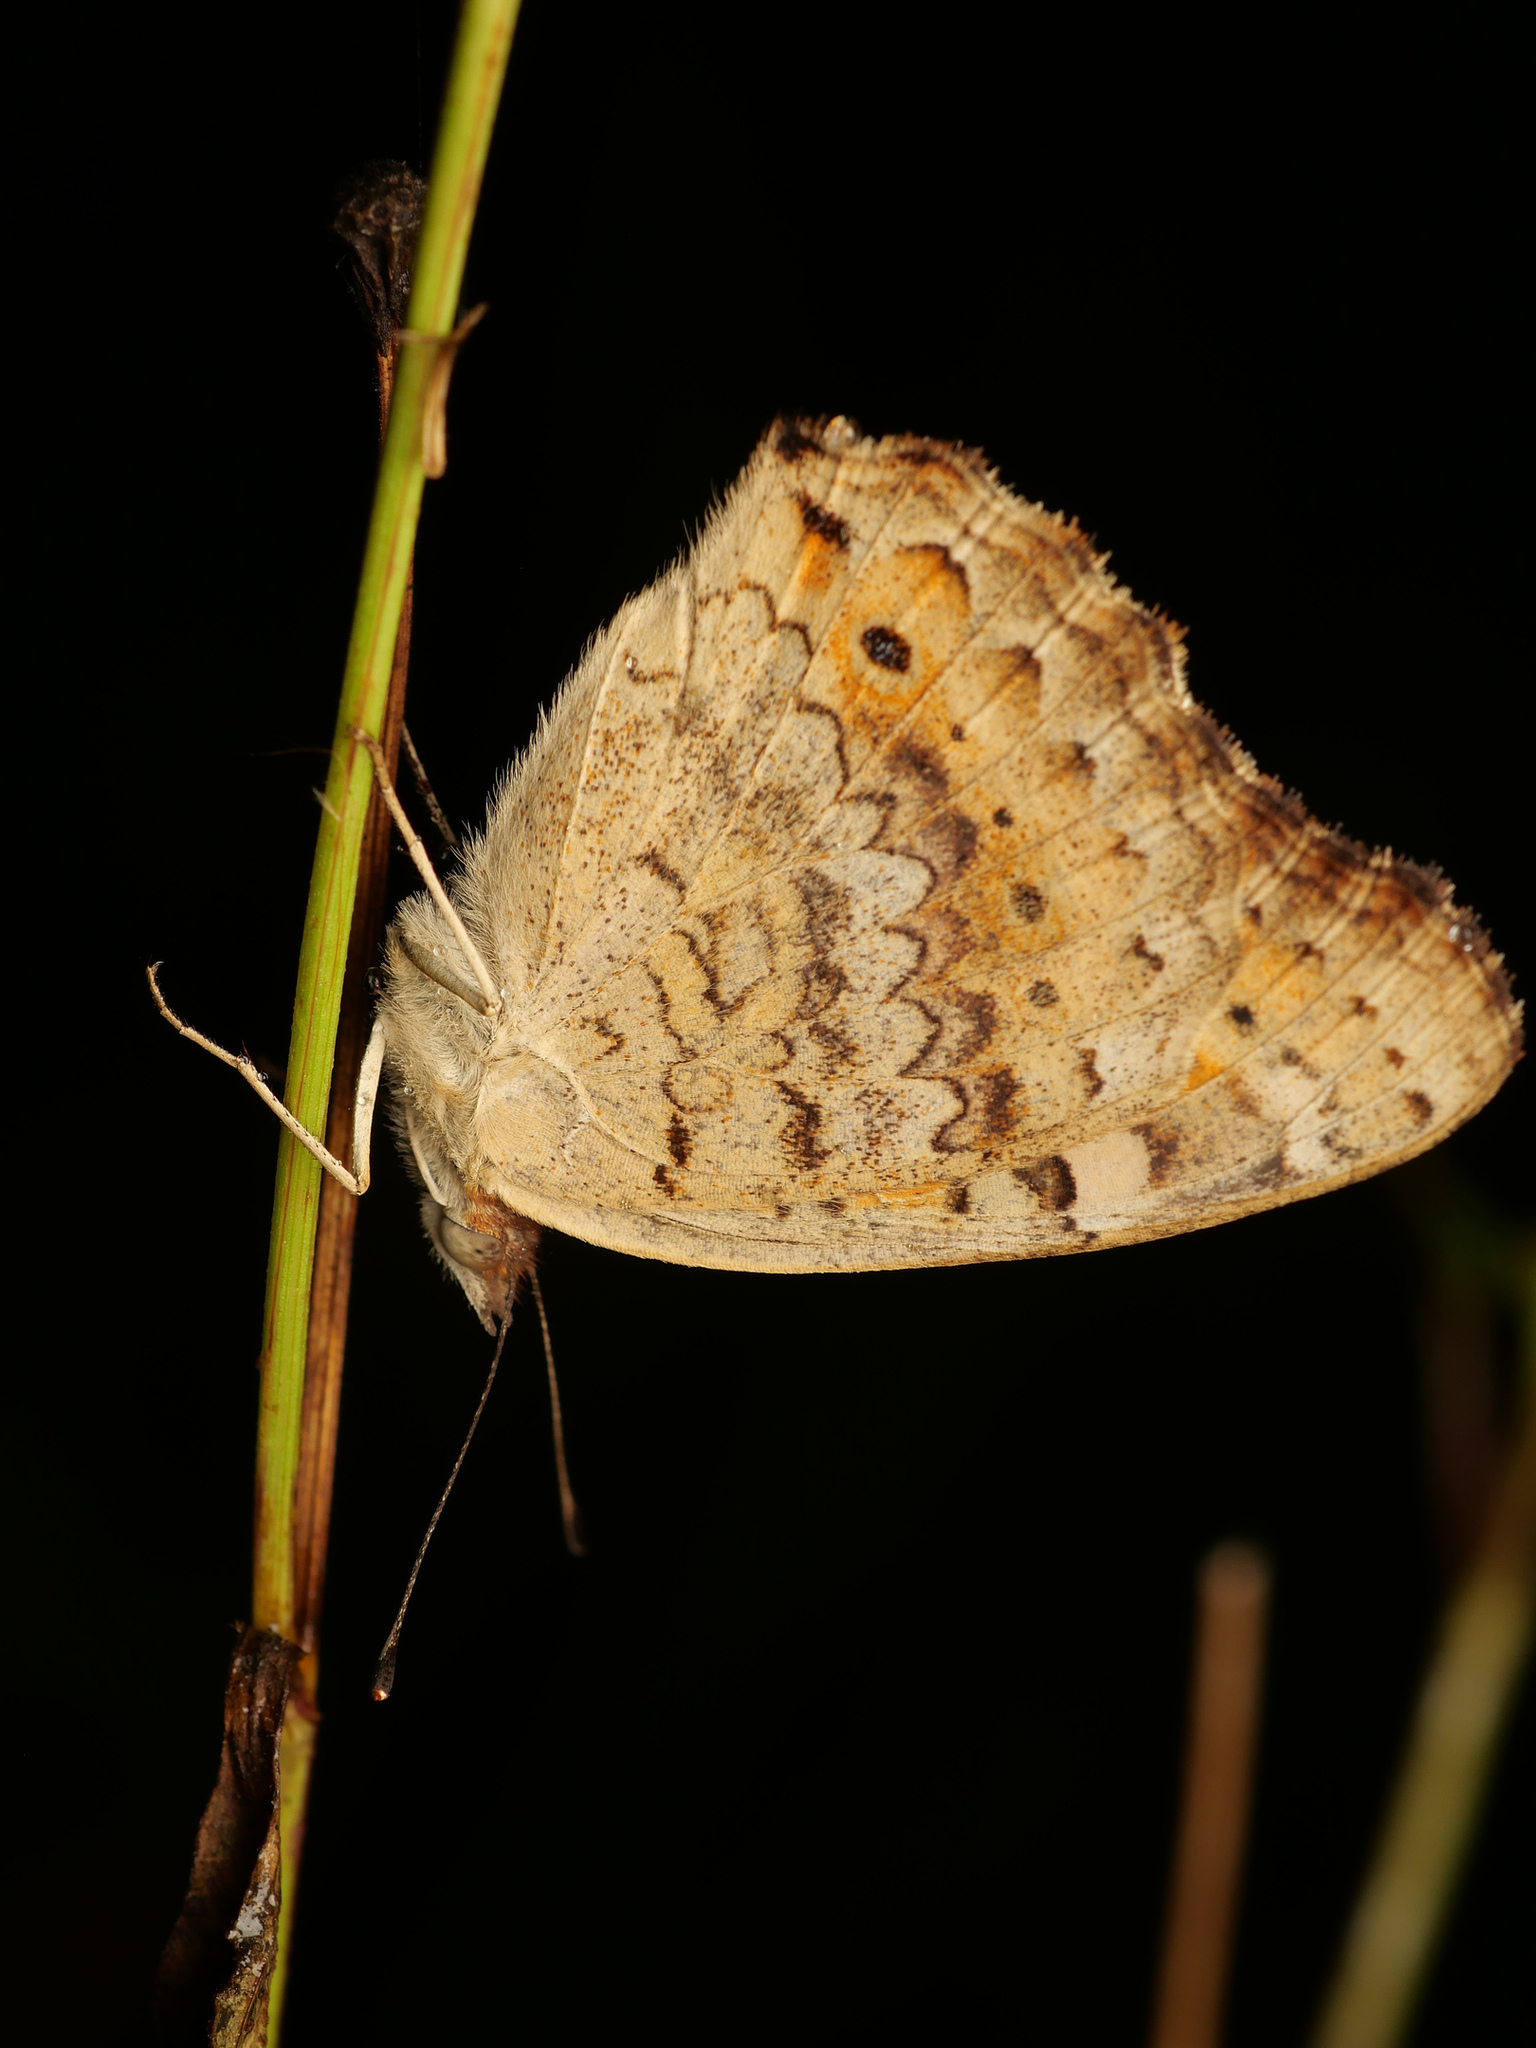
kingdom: Animalia
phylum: Arthropoda
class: Insecta
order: Lepidoptera
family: Nymphalidae
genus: Junonia
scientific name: Junonia villida
